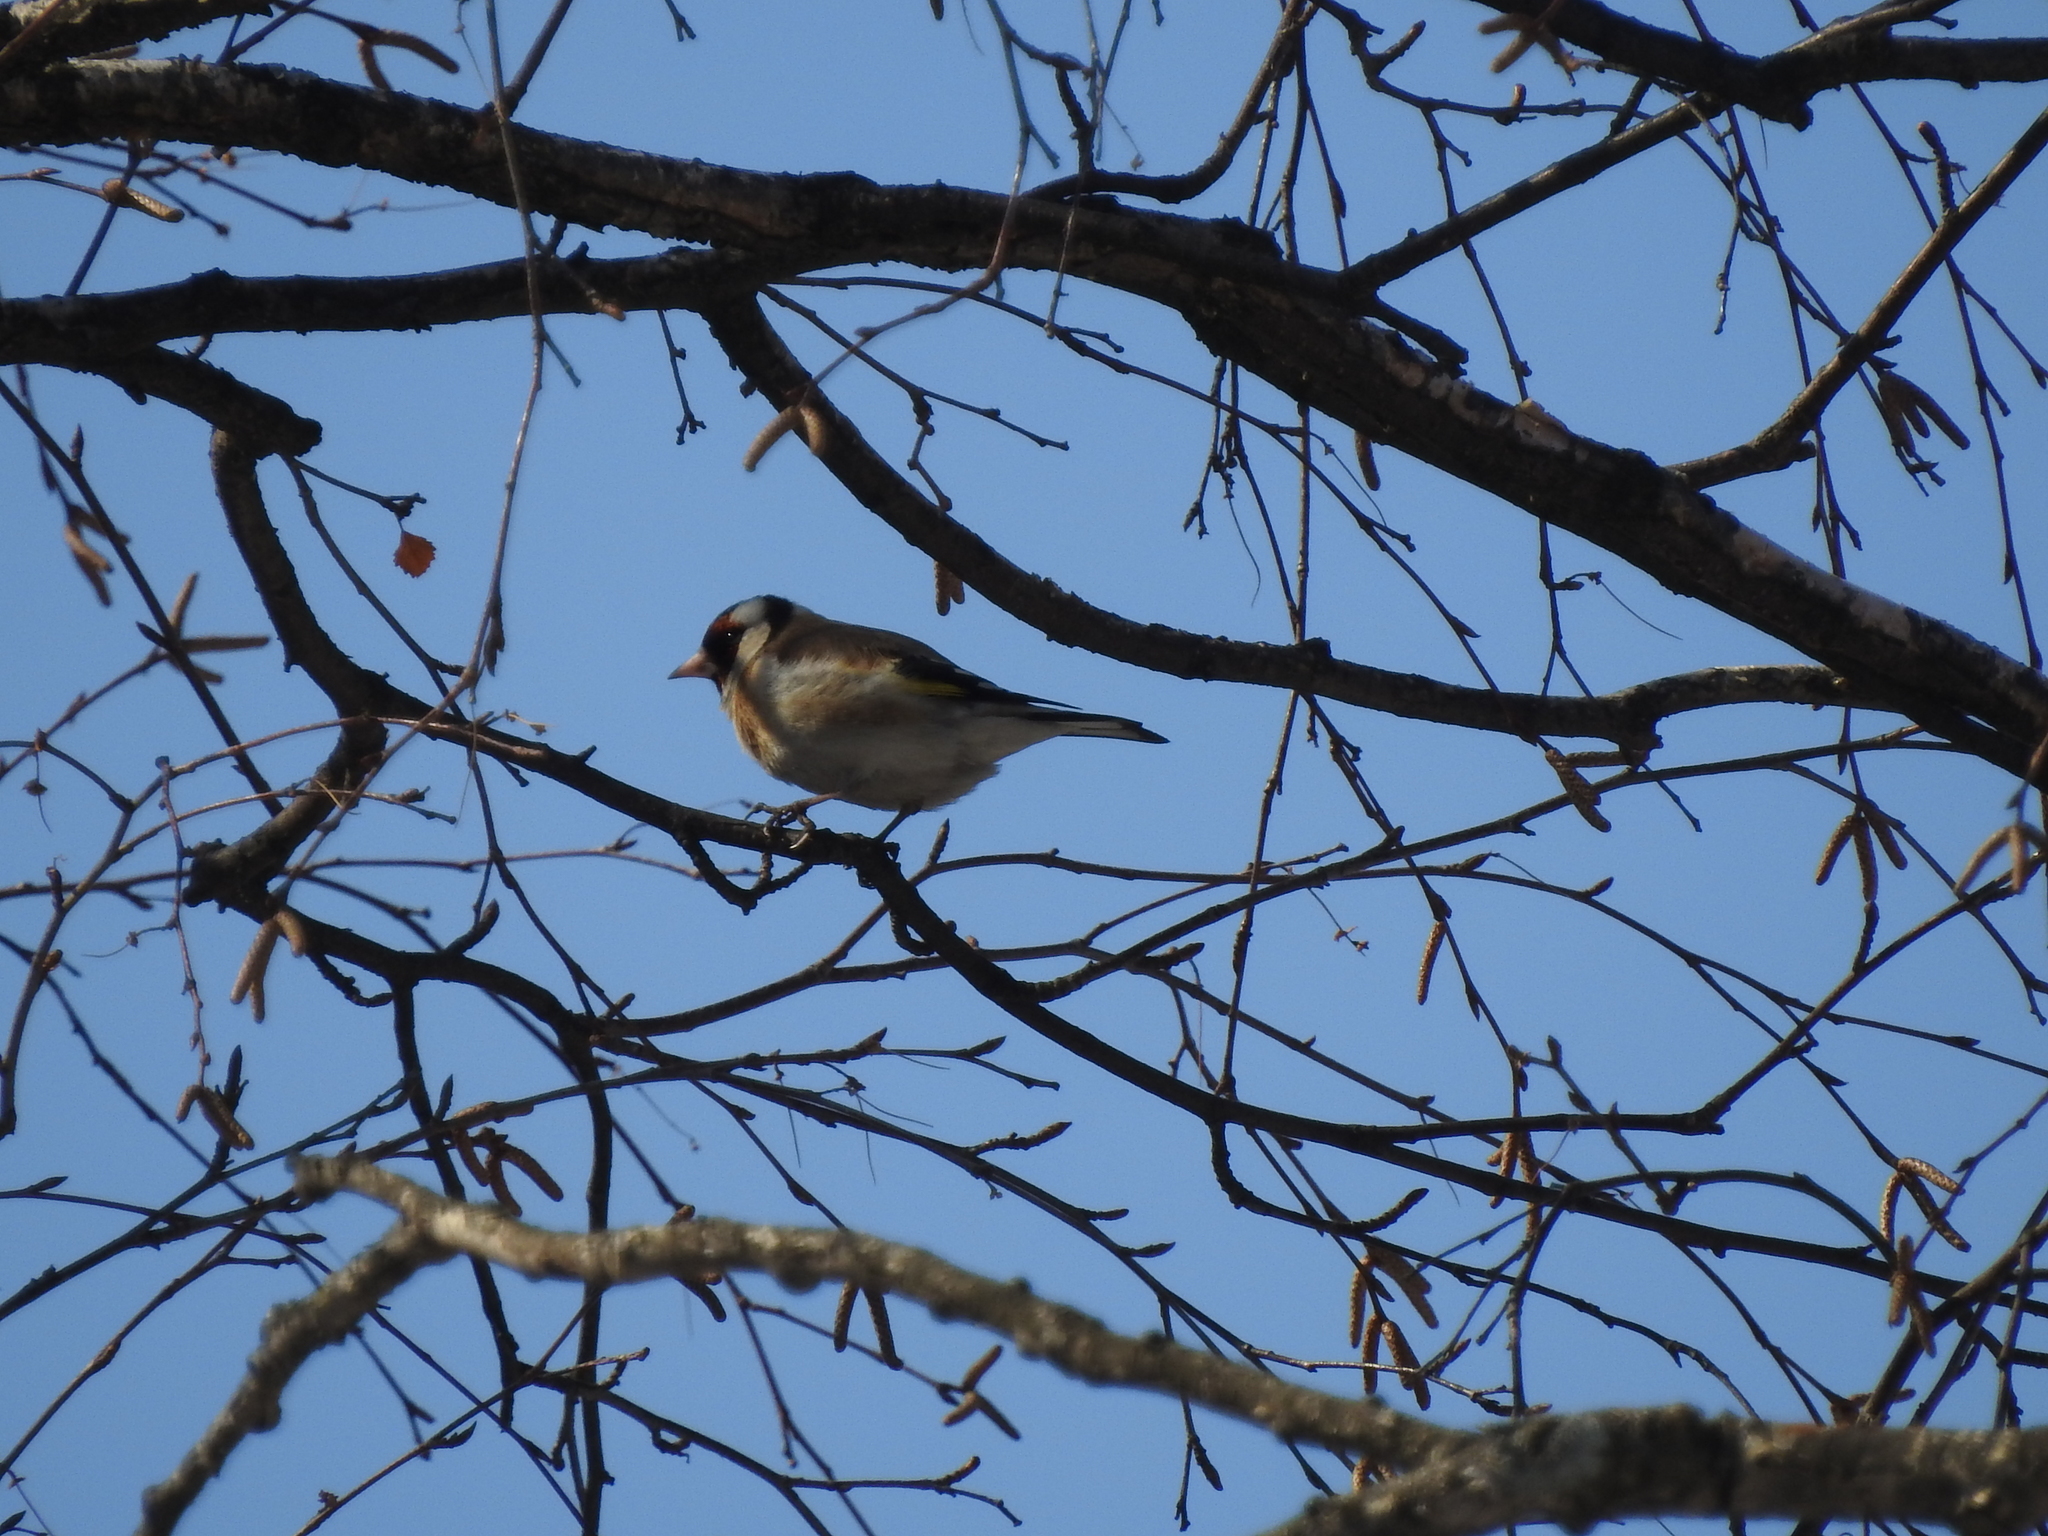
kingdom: Animalia
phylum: Chordata
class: Aves
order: Passeriformes
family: Fringillidae
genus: Carduelis
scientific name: Carduelis carduelis
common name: European goldfinch
